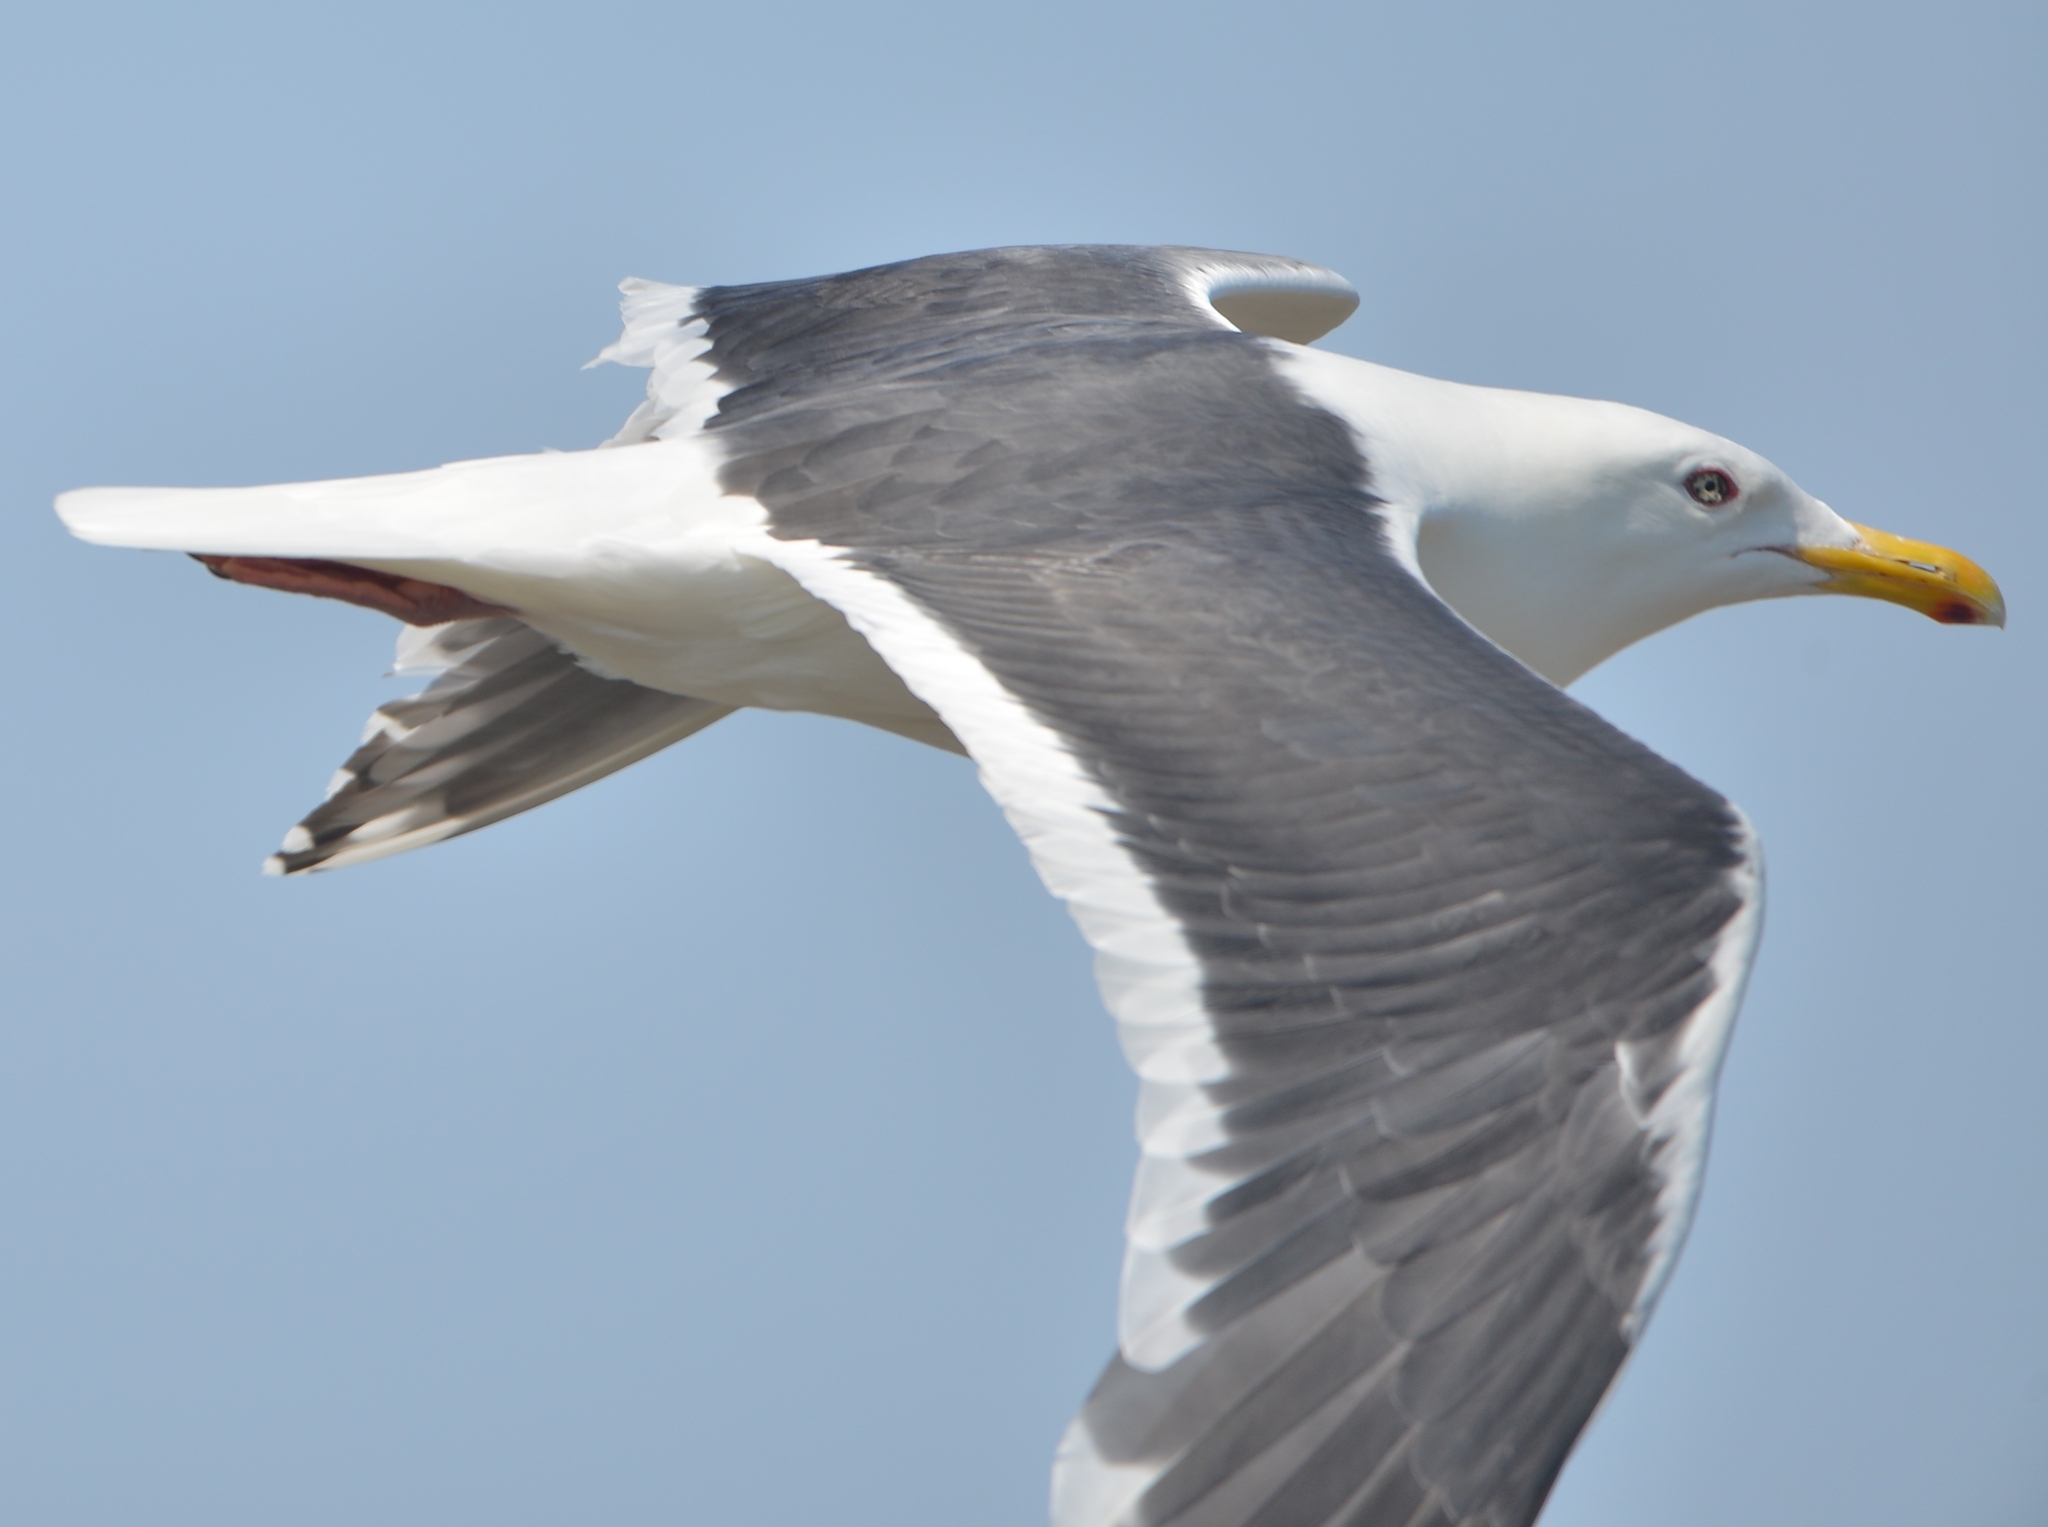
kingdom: Animalia
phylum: Chordata
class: Aves
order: Charadriiformes
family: Laridae
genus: Larus
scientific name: Larus schistisagus
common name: Slaty-backed gull
